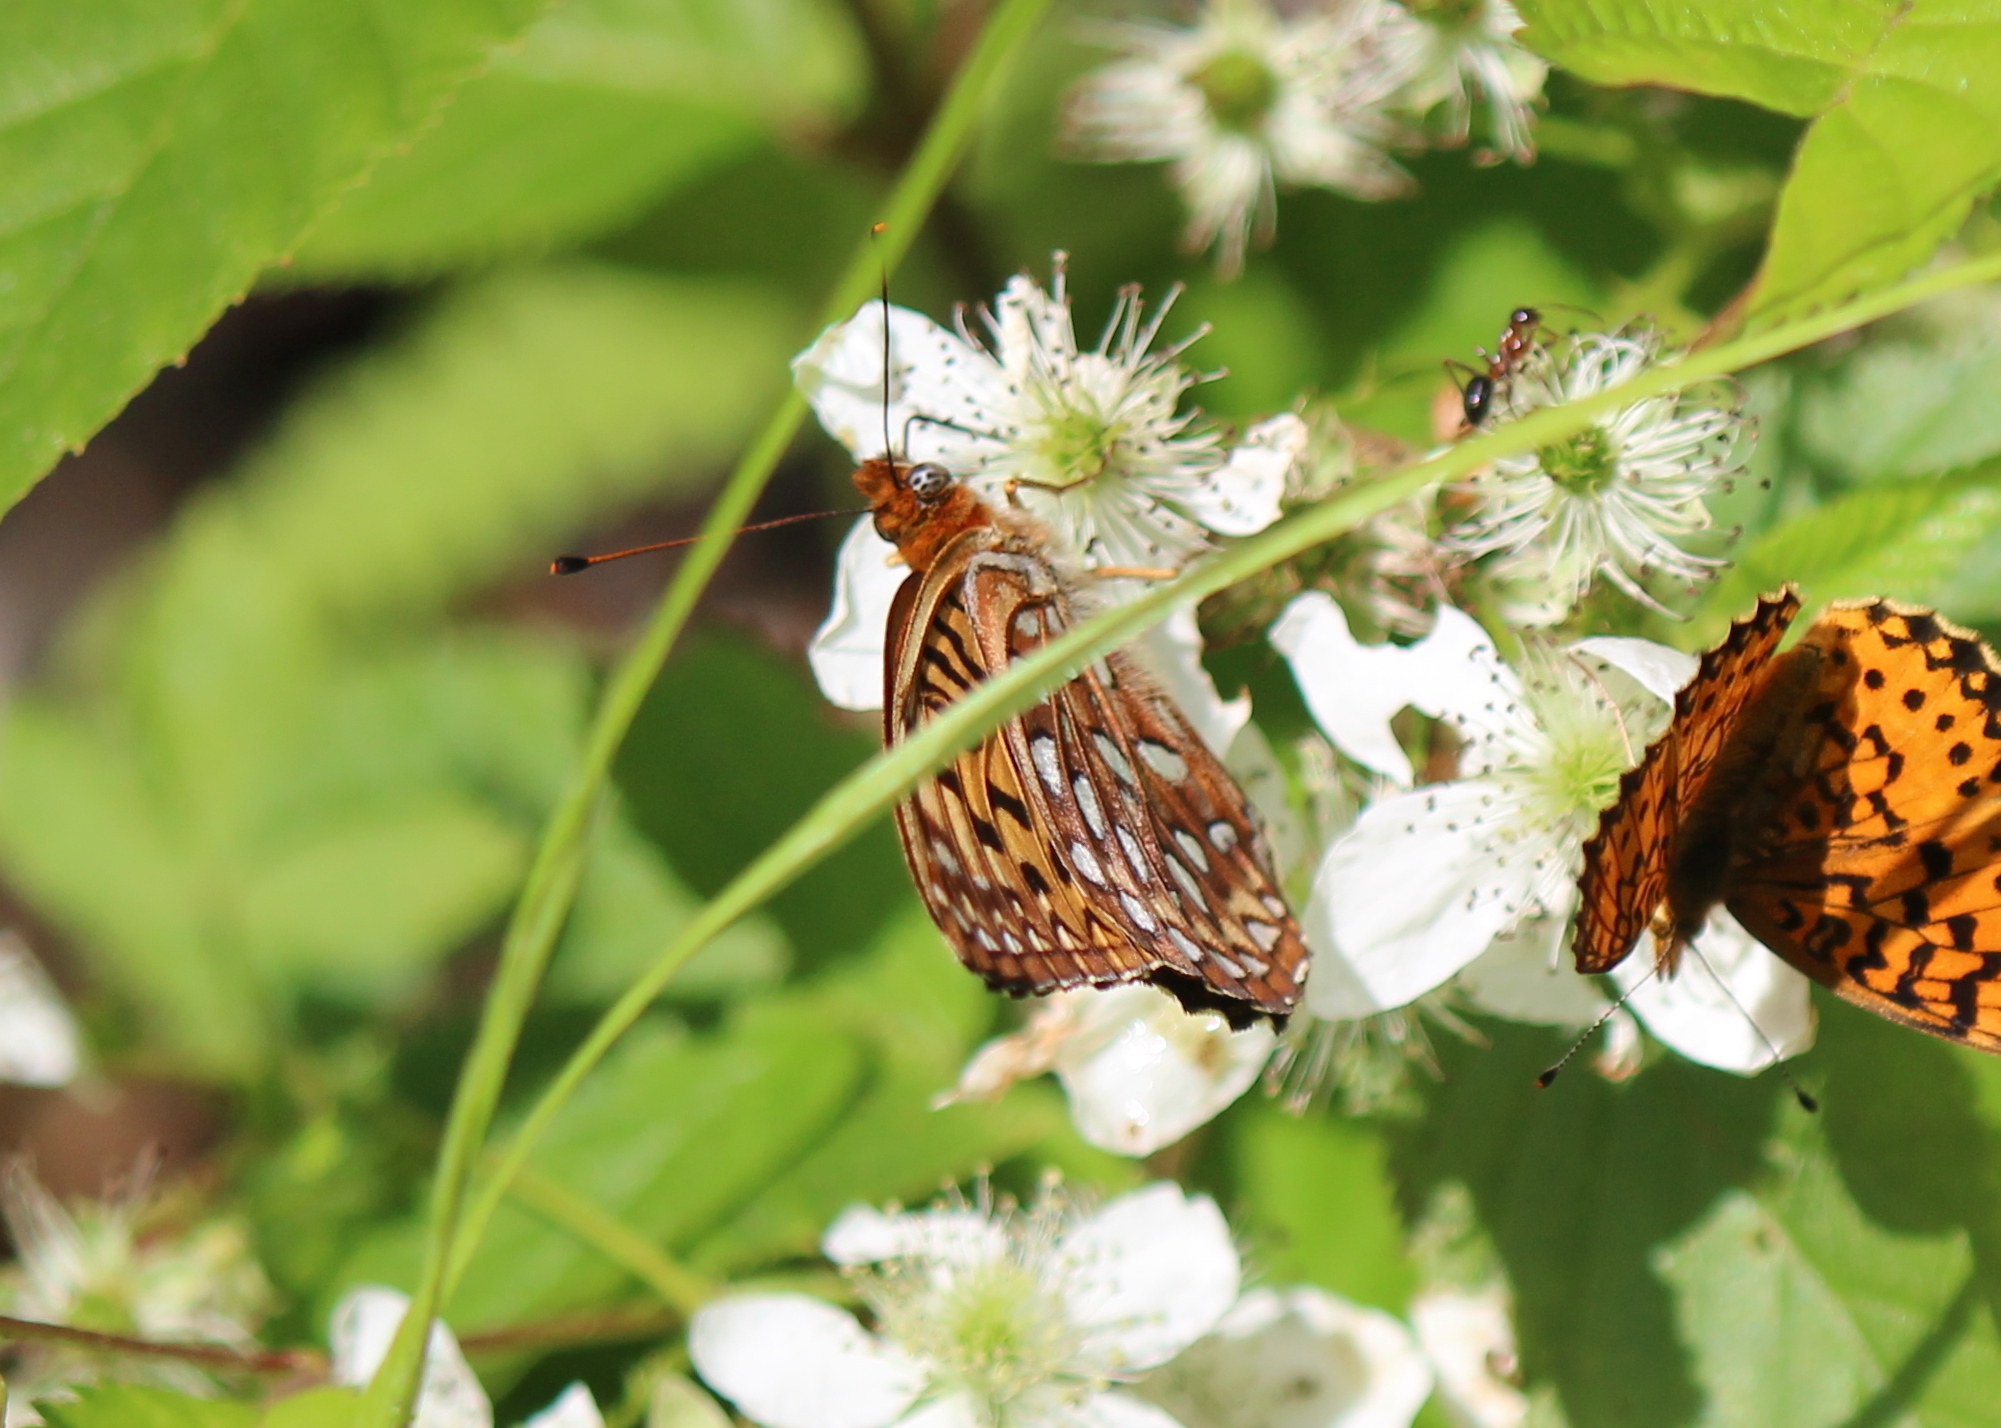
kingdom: Animalia
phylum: Arthropoda
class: Insecta
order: Lepidoptera
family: Nymphalidae
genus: Speyeria
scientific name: Speyeria atlantis
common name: Atlantis fritillary
